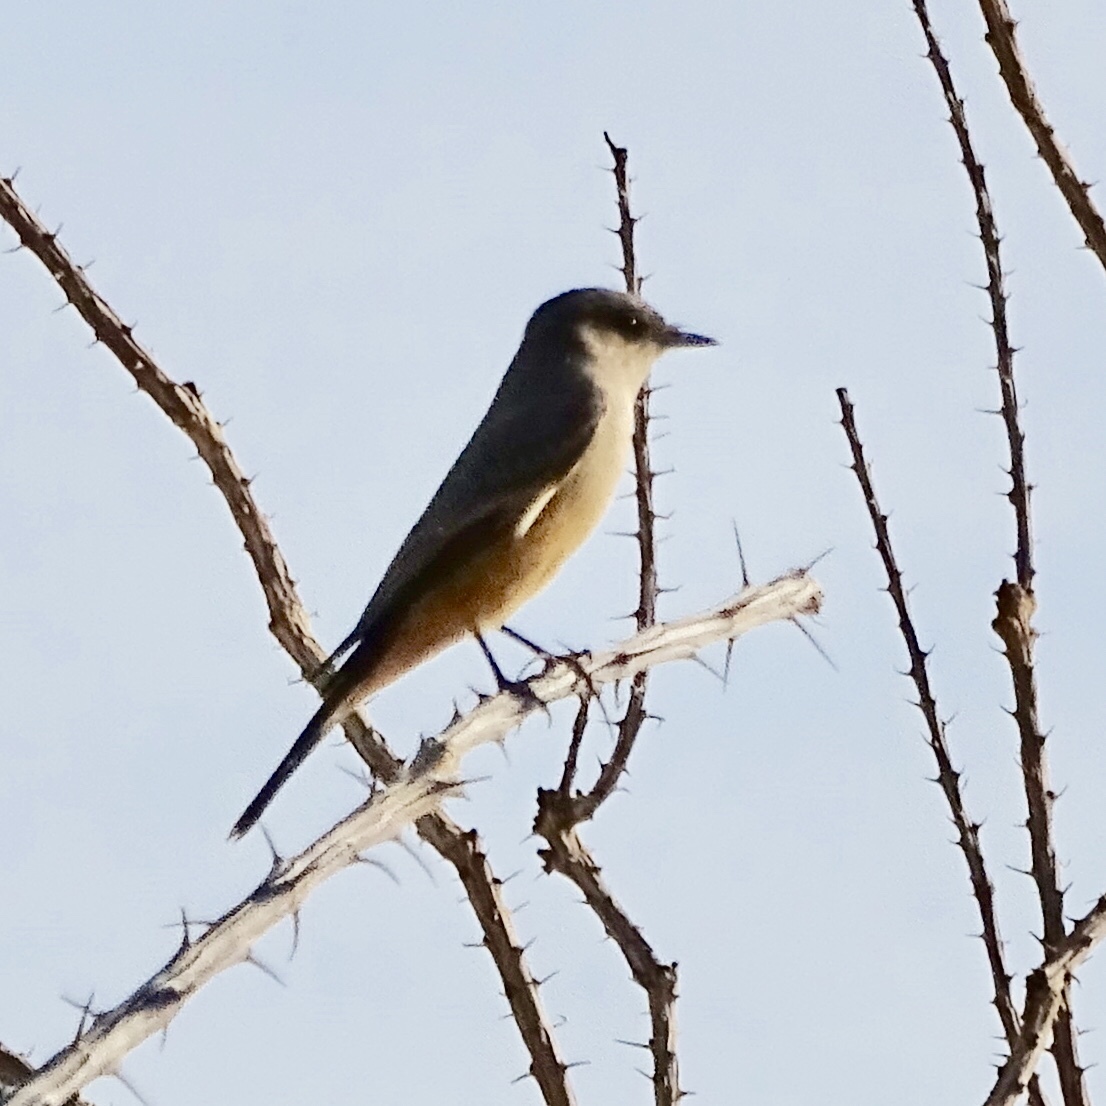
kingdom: Animalia
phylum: Chordata
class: Aves
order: Passeriformes
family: Tyrannidae
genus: Sayornis
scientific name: Sayornis saya
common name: Say's phoebe
